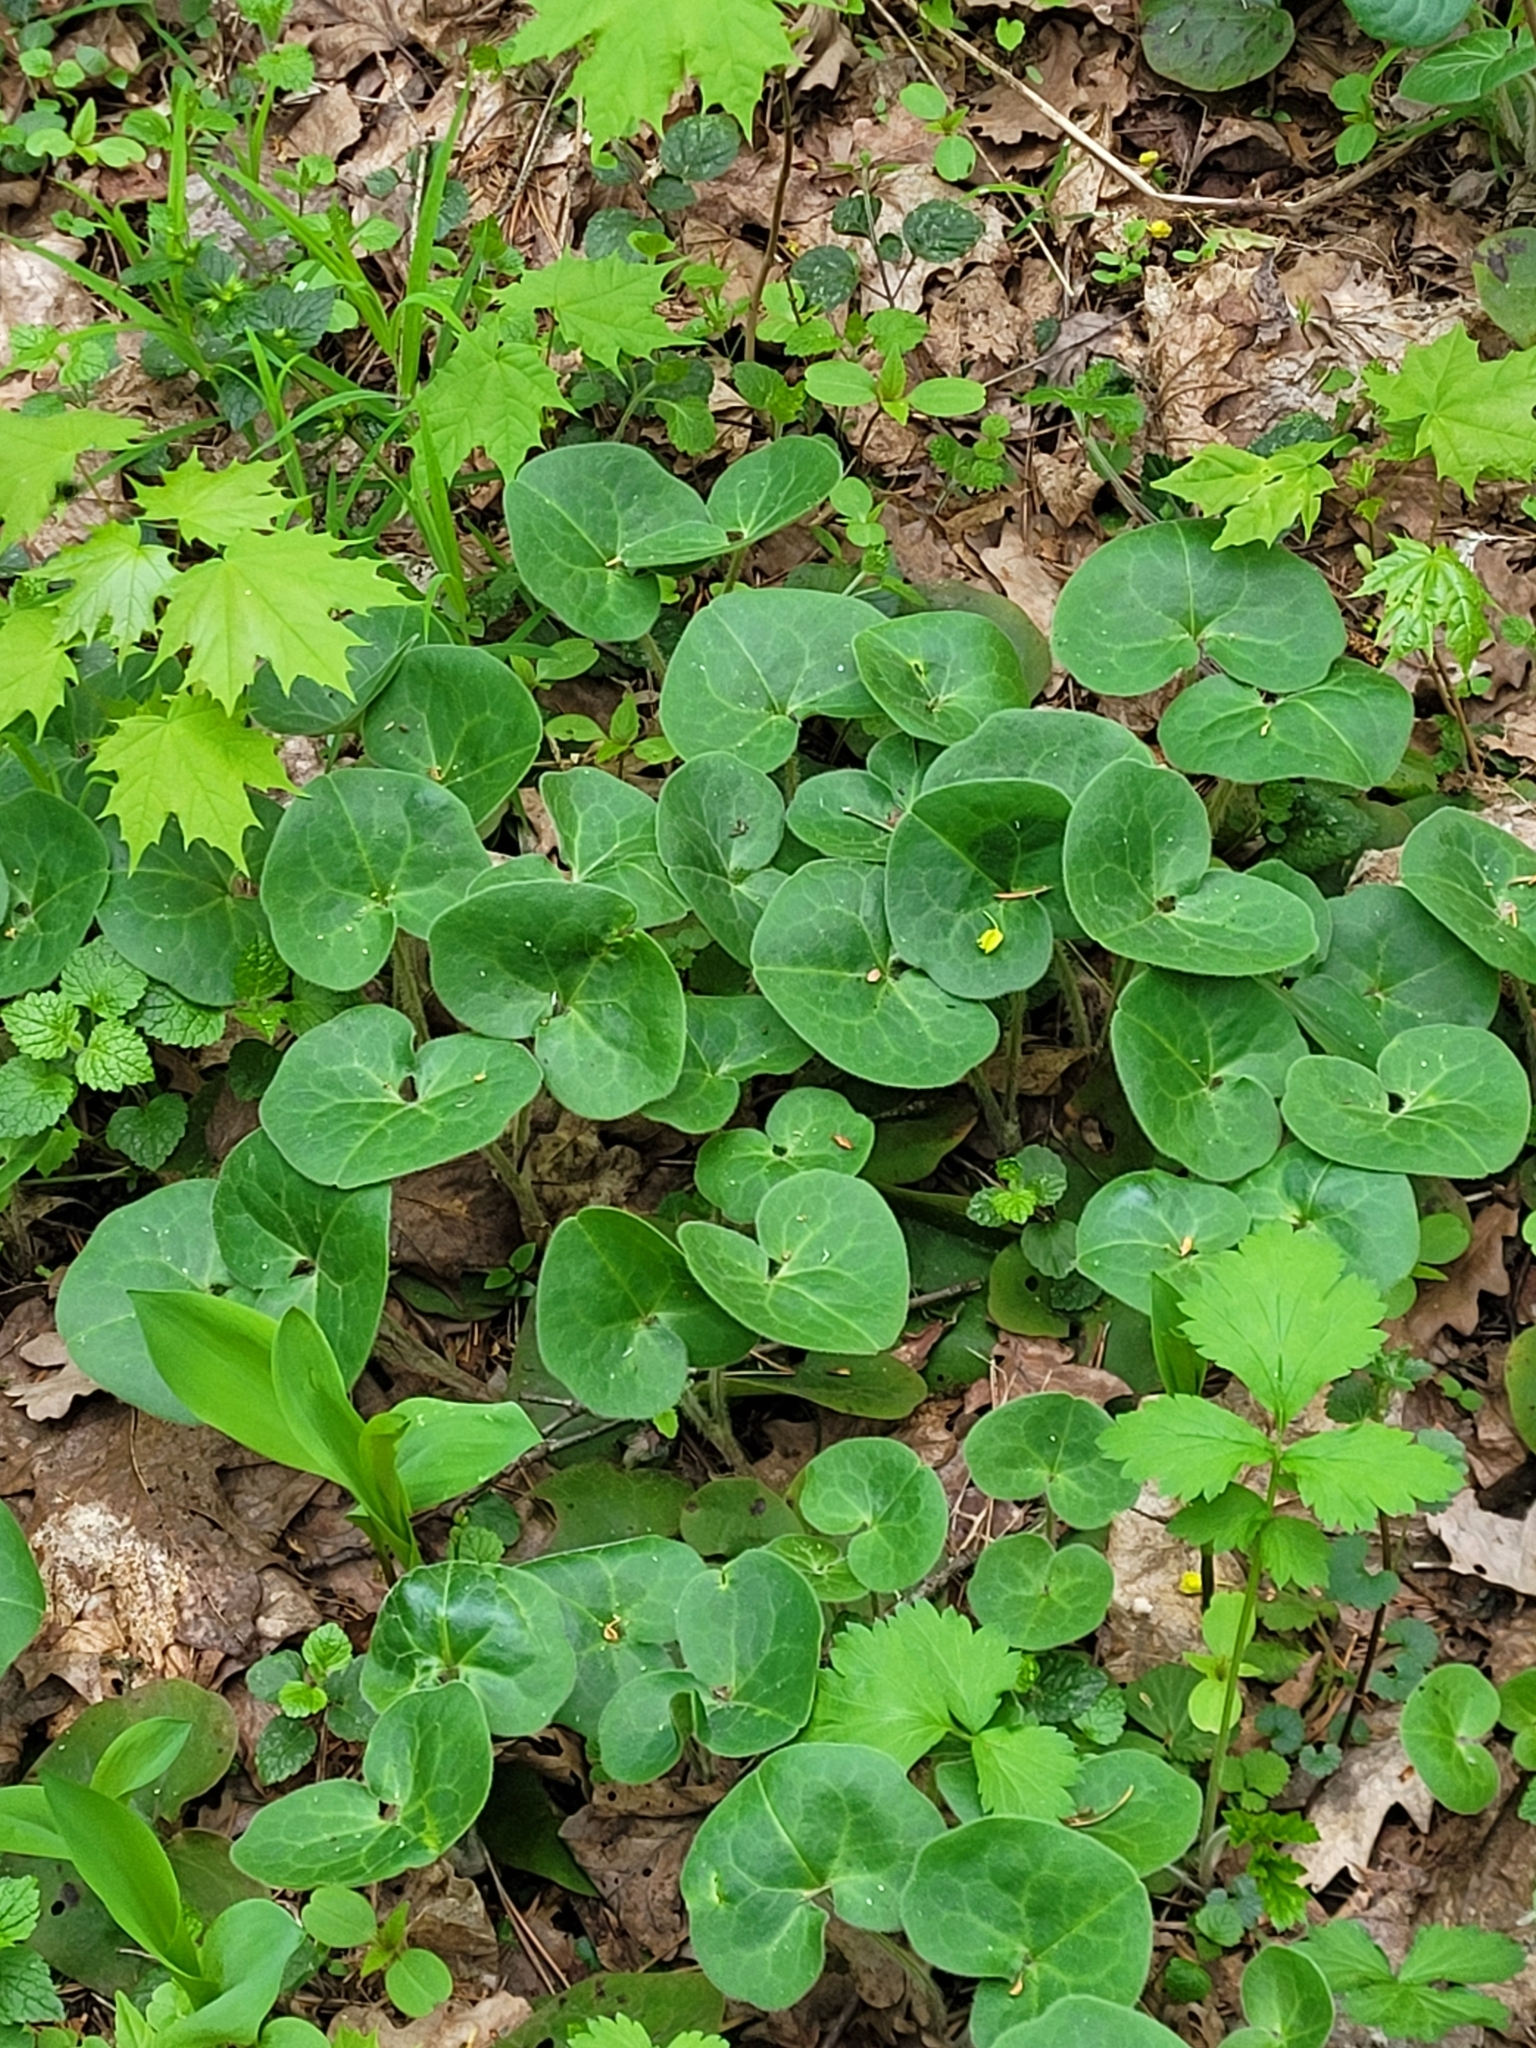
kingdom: Plantae
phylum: Tracheophyta
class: Magnoliopsida
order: Piperales
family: Aristolochiaceae
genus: Asarum
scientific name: Asarum europaeum
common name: Asarabacca
